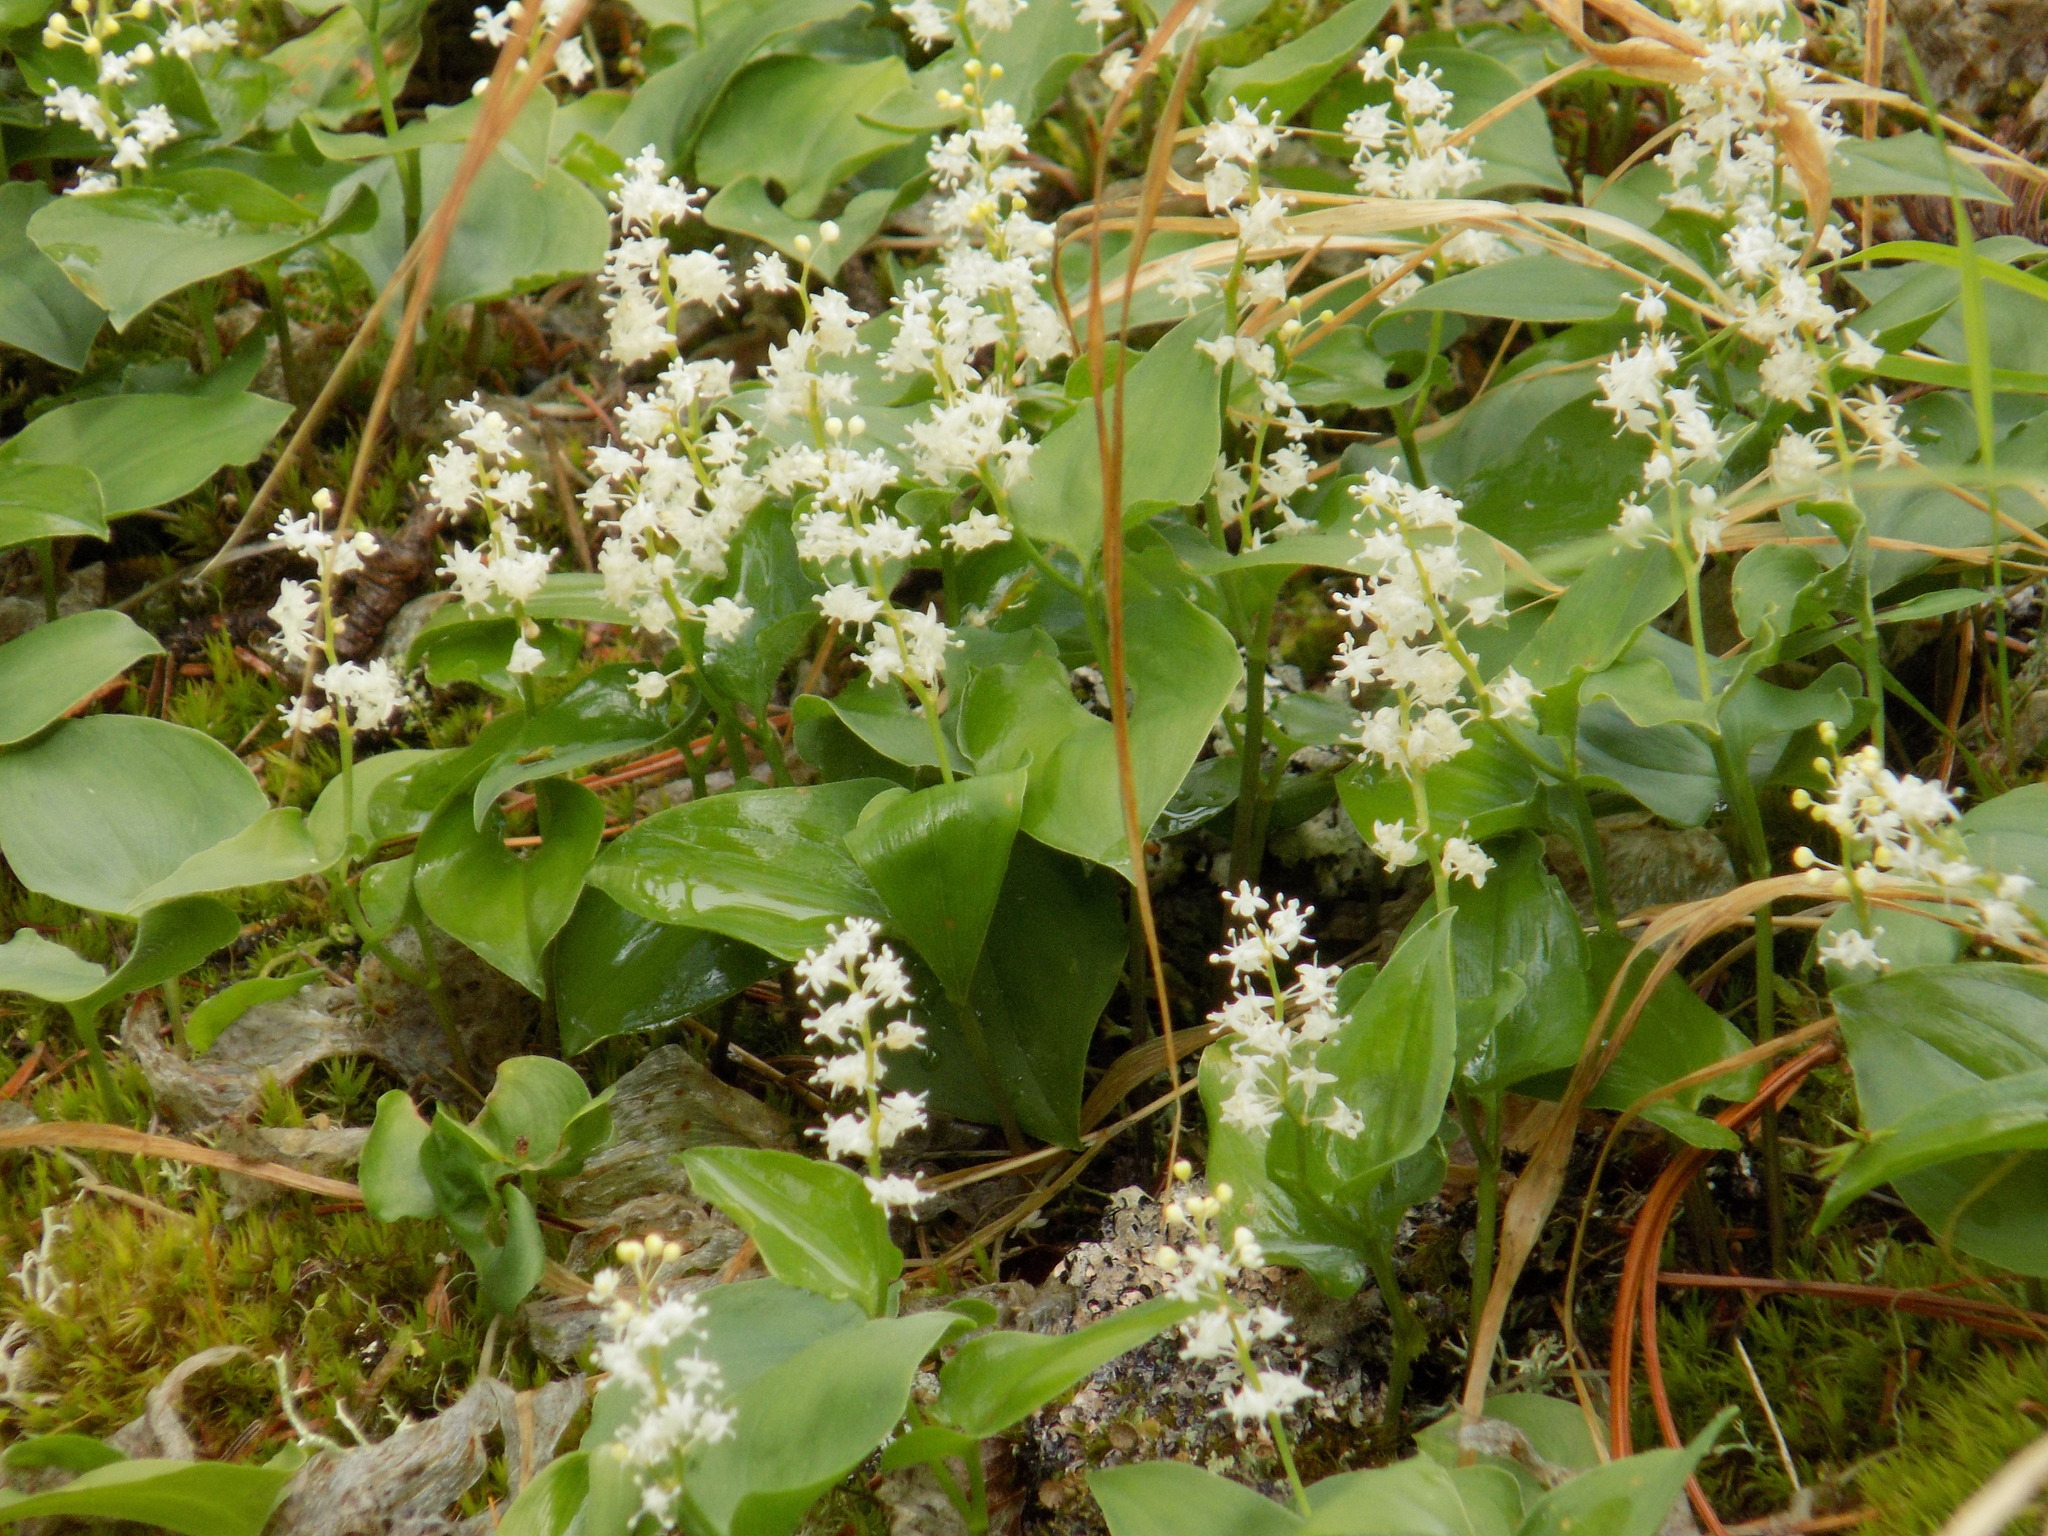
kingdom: Plantae
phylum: Tracheophyta
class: Liliopsida
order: Asparagales
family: Asparagaceae
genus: Maianthemum
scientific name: Maianthemum bifolium
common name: May lily
